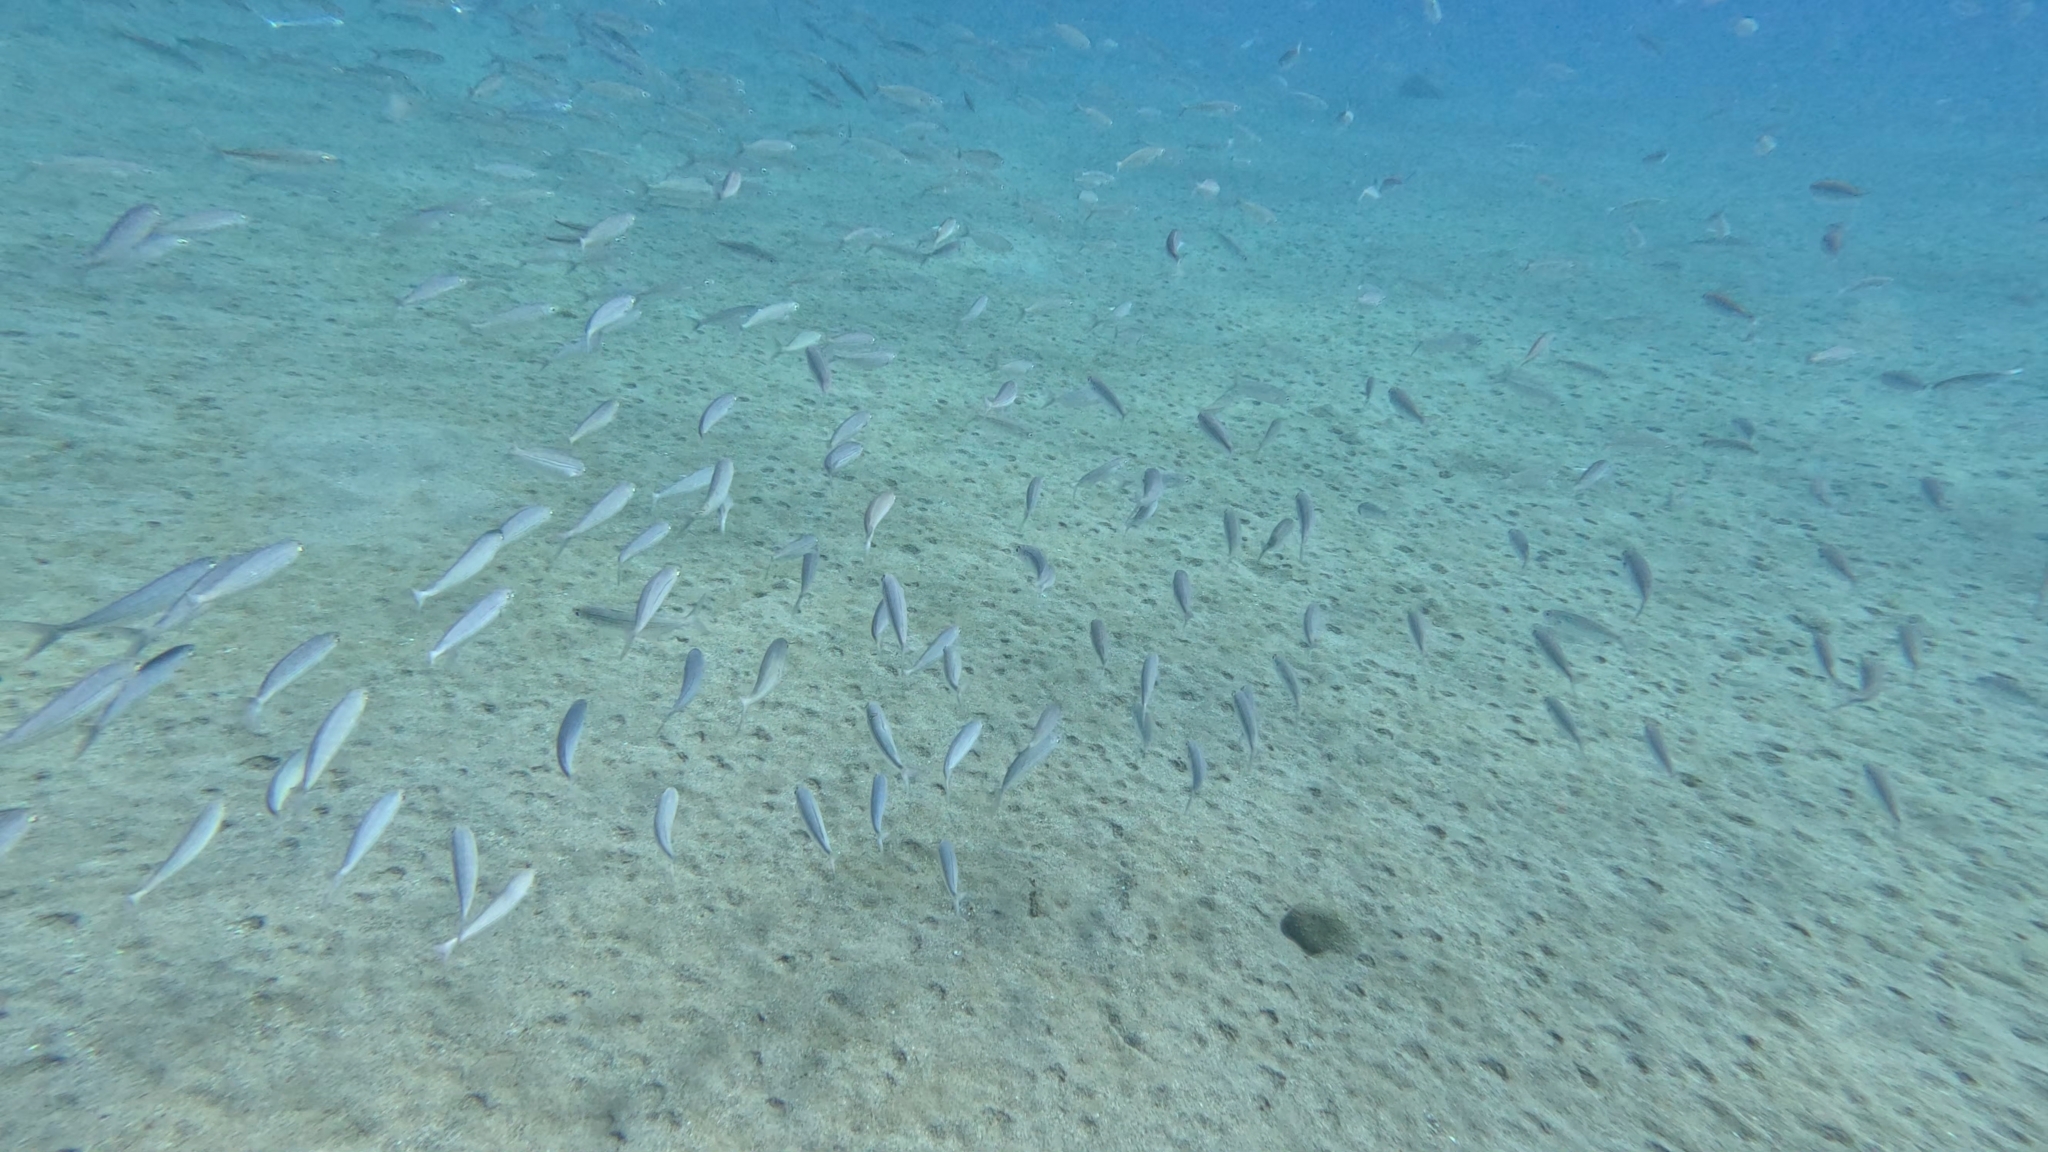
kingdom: Animalia
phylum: Chordata
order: Perciformes
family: Sparidae
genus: Boops
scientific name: Boops boops
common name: Bogue
